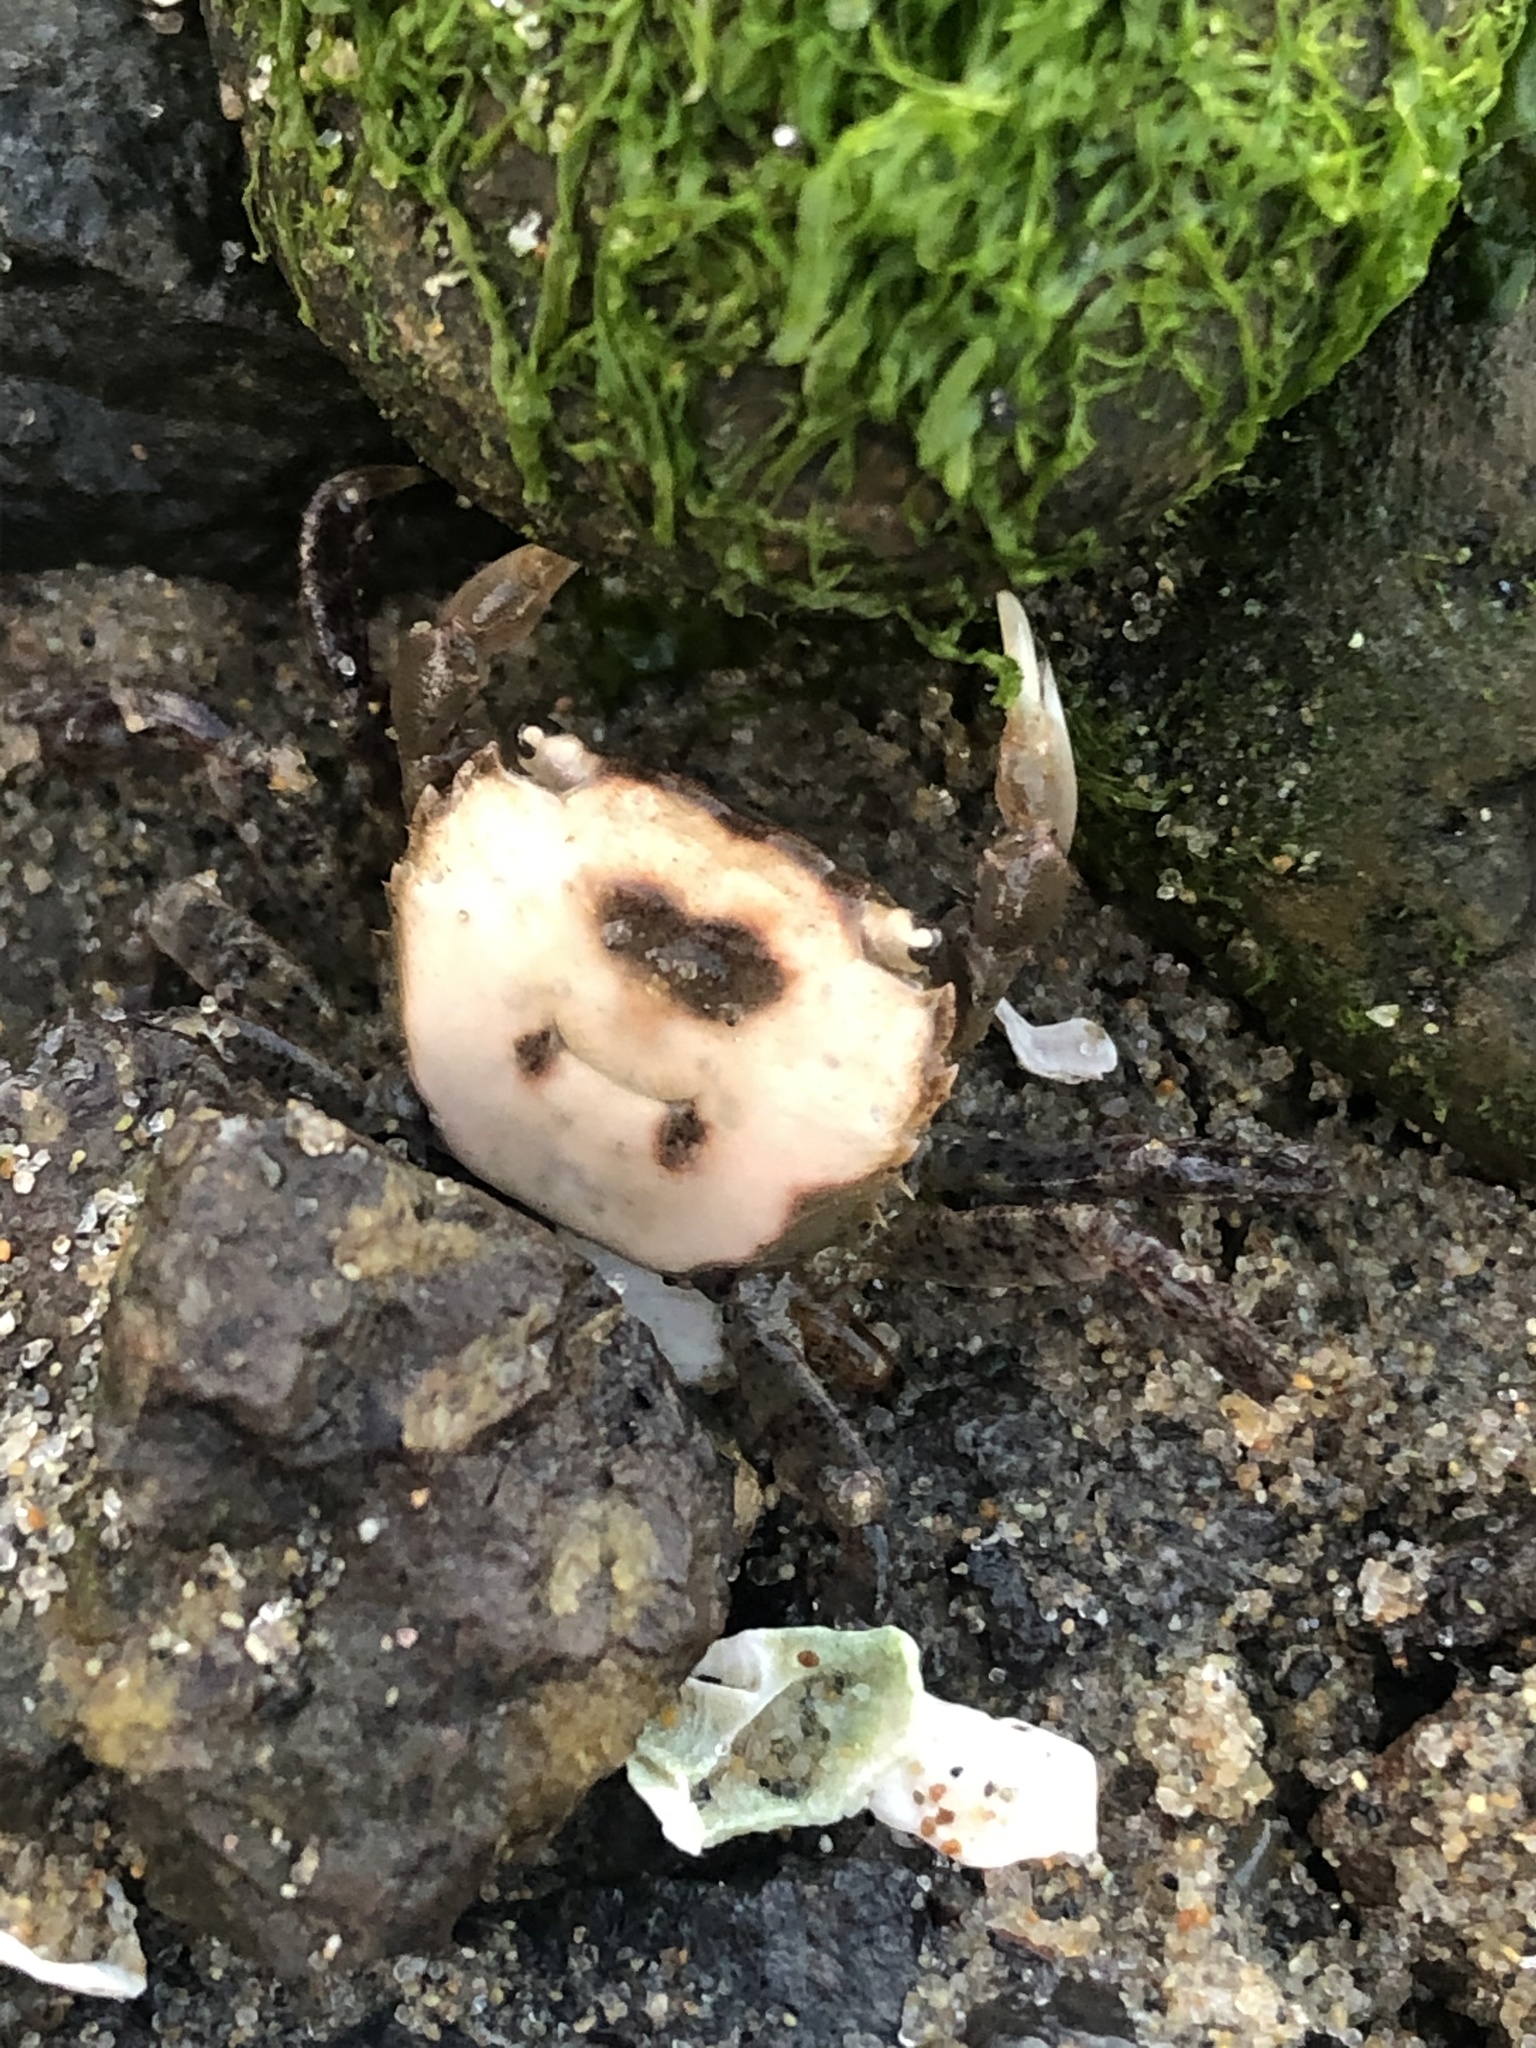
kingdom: Animalia
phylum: Arthropoda
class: Malacostraca
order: Decapoda
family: Varunidae
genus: Hemigrapsus
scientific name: Hemigrapsus oregonensis
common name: Yellow shore crab
